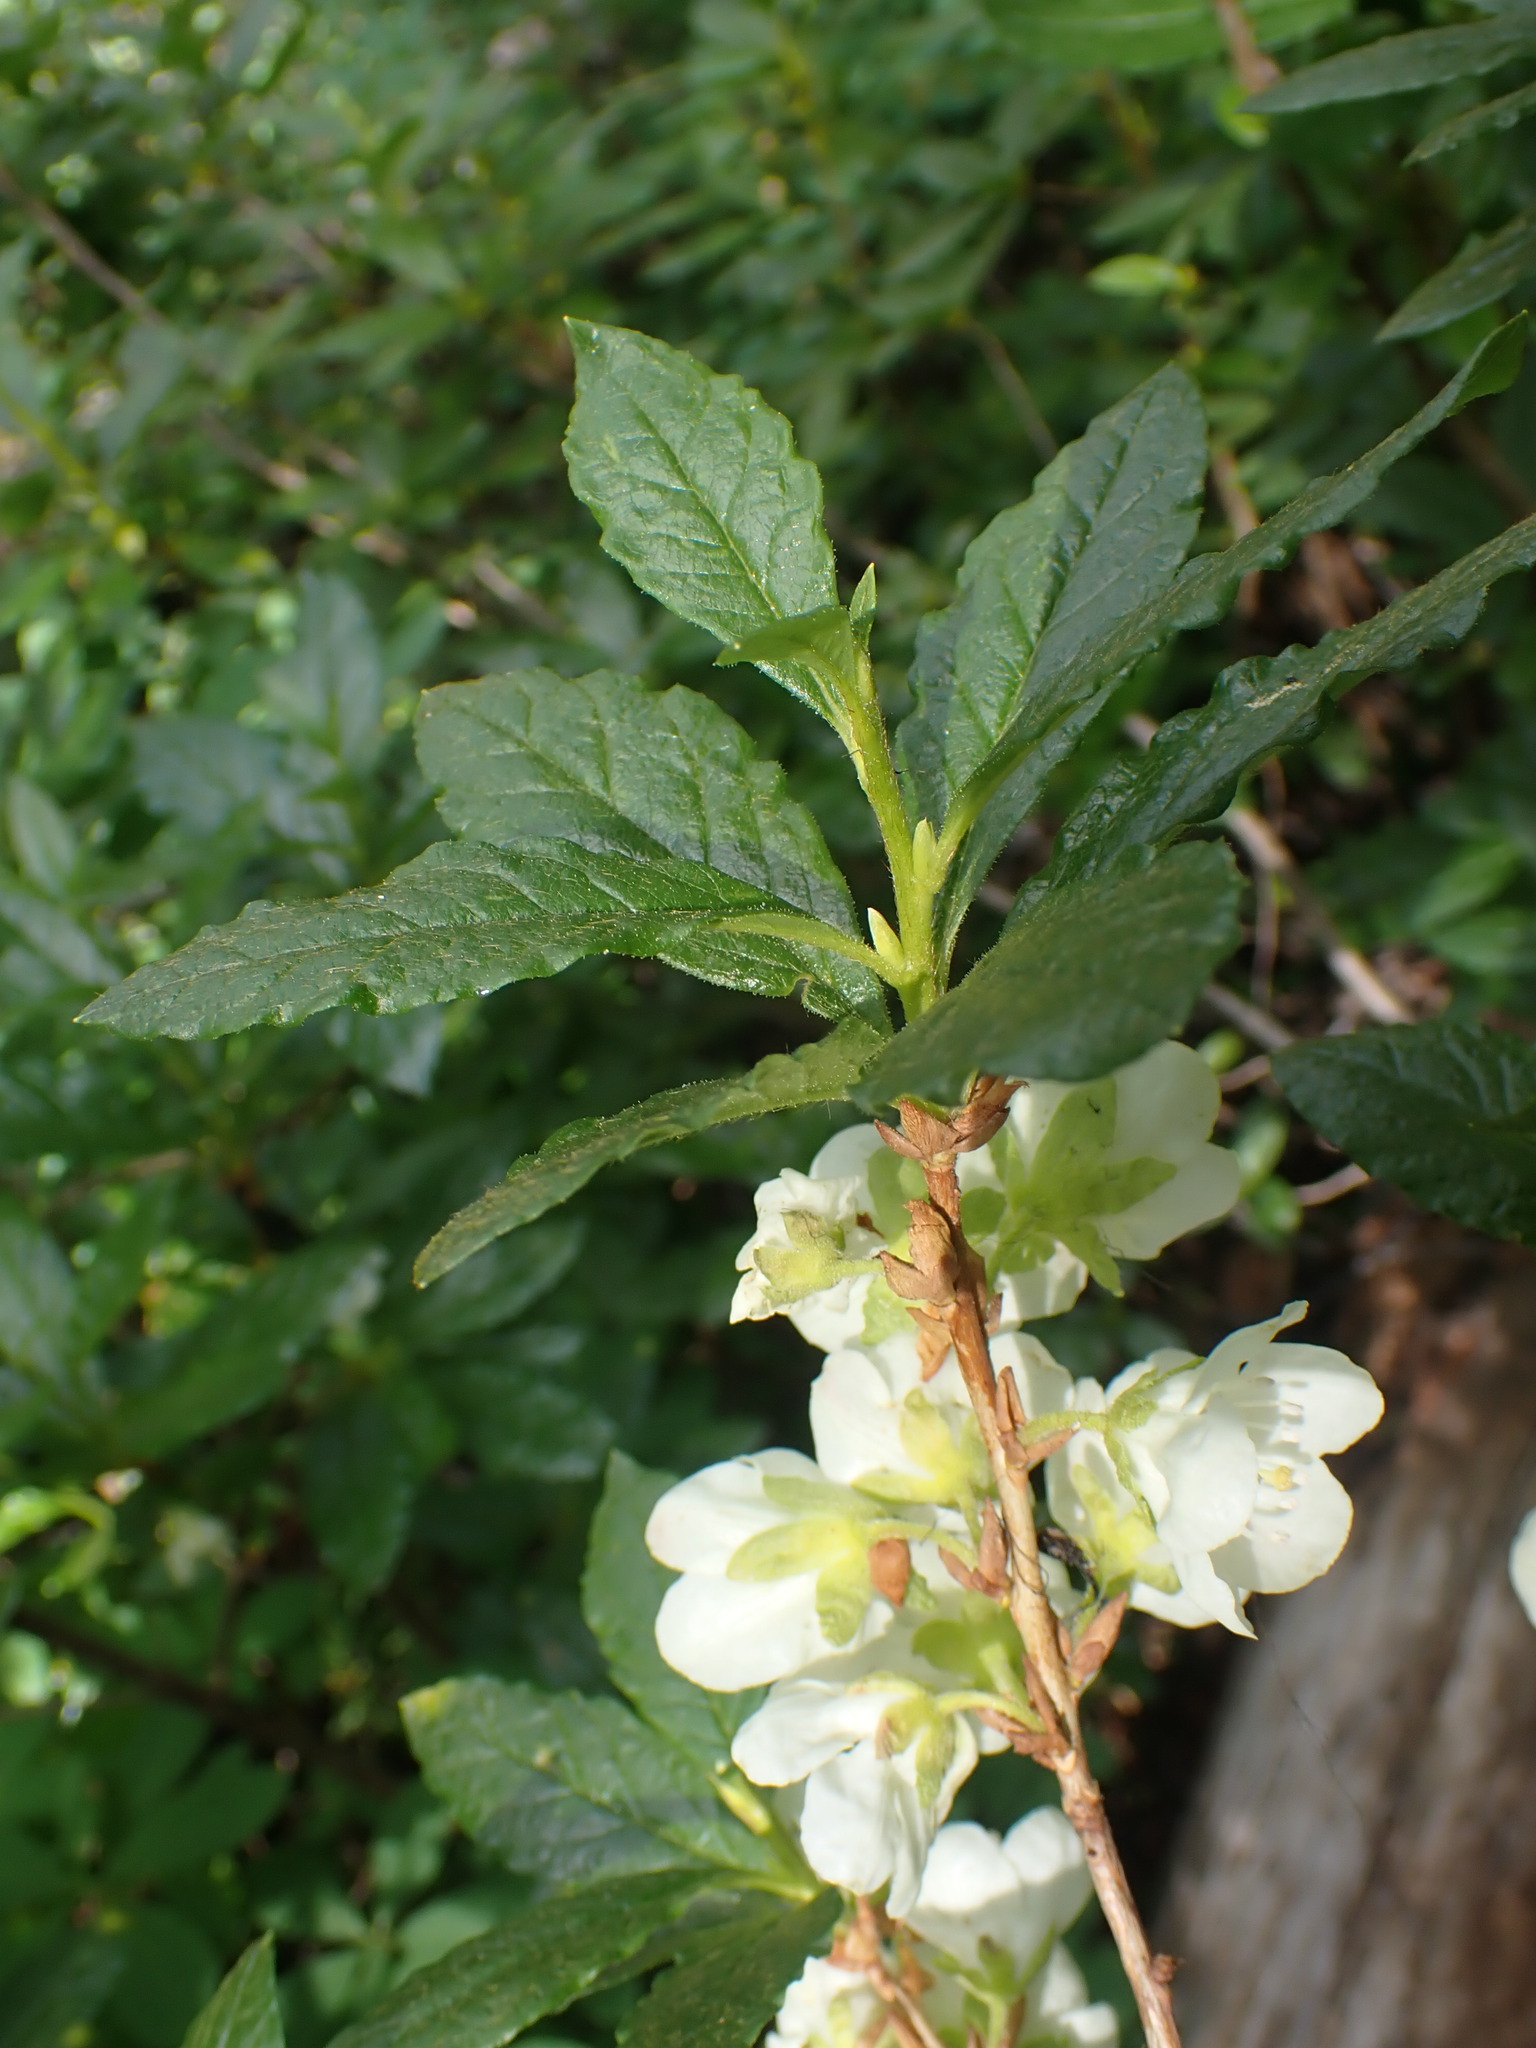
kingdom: Plantae
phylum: Tracheophyta
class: Magnoliopsida
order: Ericales
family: Ericaceae
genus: Rhododendron
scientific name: Rhododendron albiflorum
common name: White rhododendron
